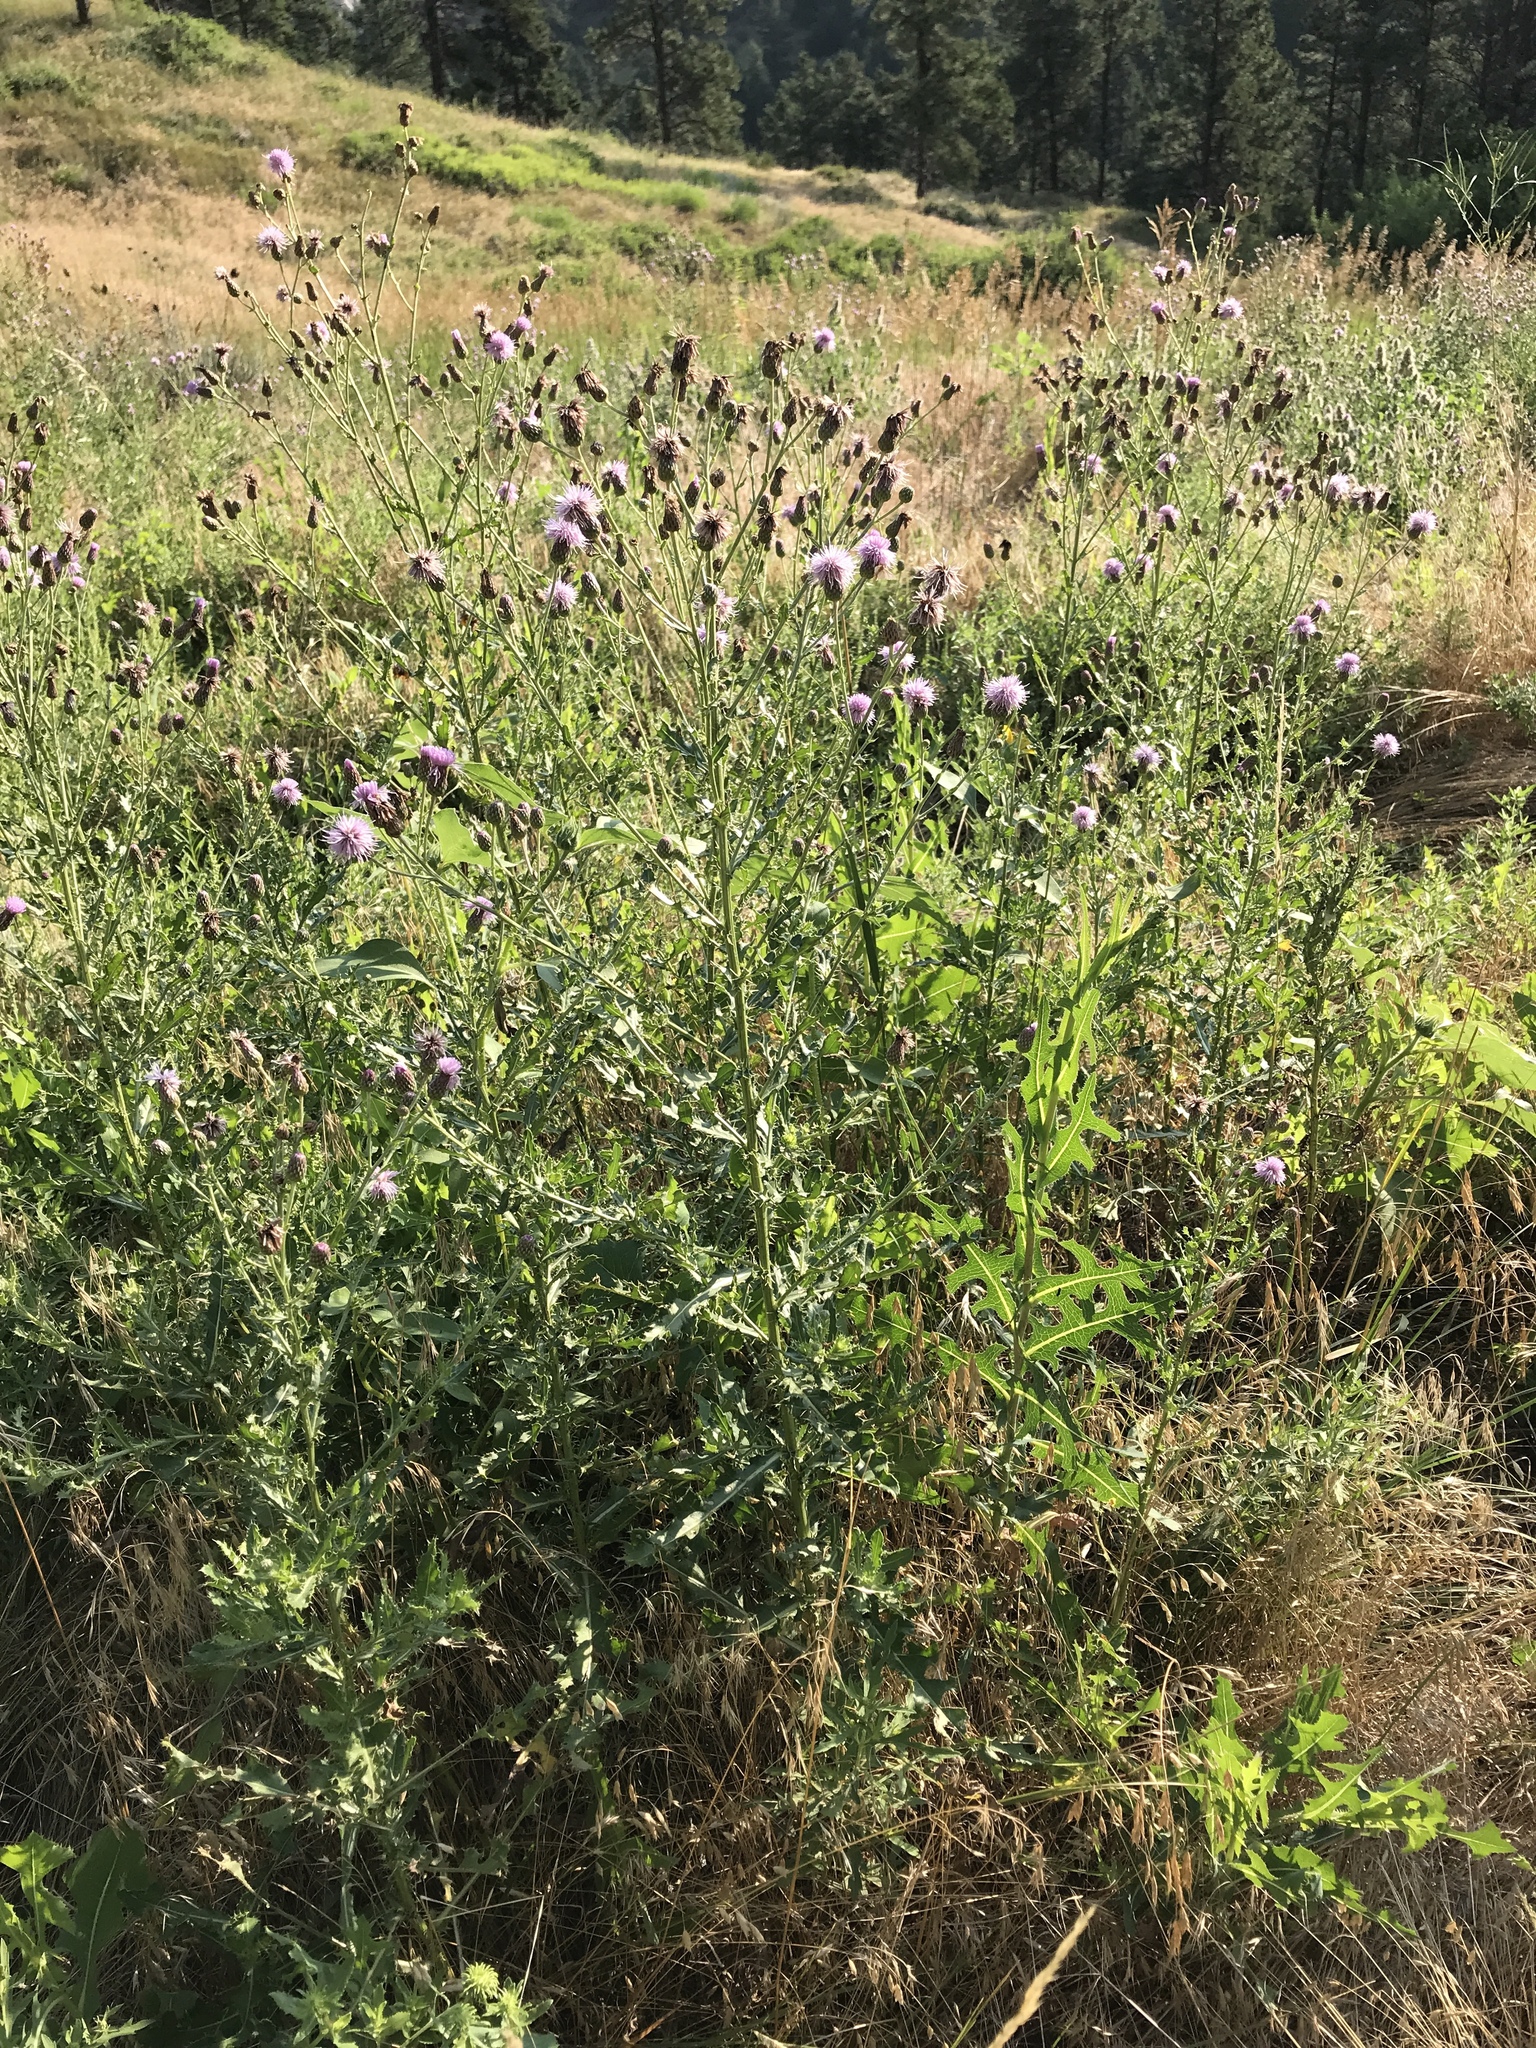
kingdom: Plantae
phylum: Tracheophyta
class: Magnoliopsida
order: Asterales
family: Asteraceae
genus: Cirsium
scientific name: Cirsium arvense
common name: Creeping thistle
